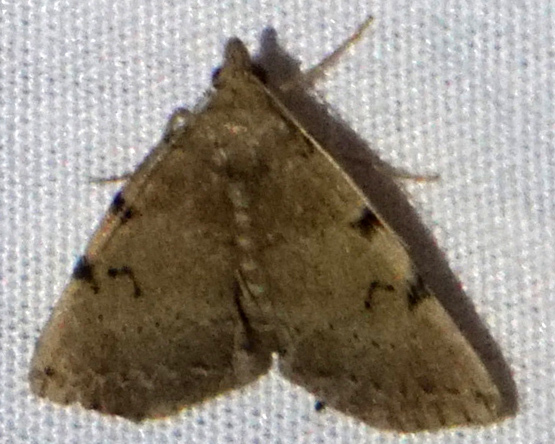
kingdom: Animalia
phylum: Arthropoda
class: Insecta
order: Lepidoptera
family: Erebidae
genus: Zanclognatha
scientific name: Zanclognatha lituralis
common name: Lettered fan-foot
